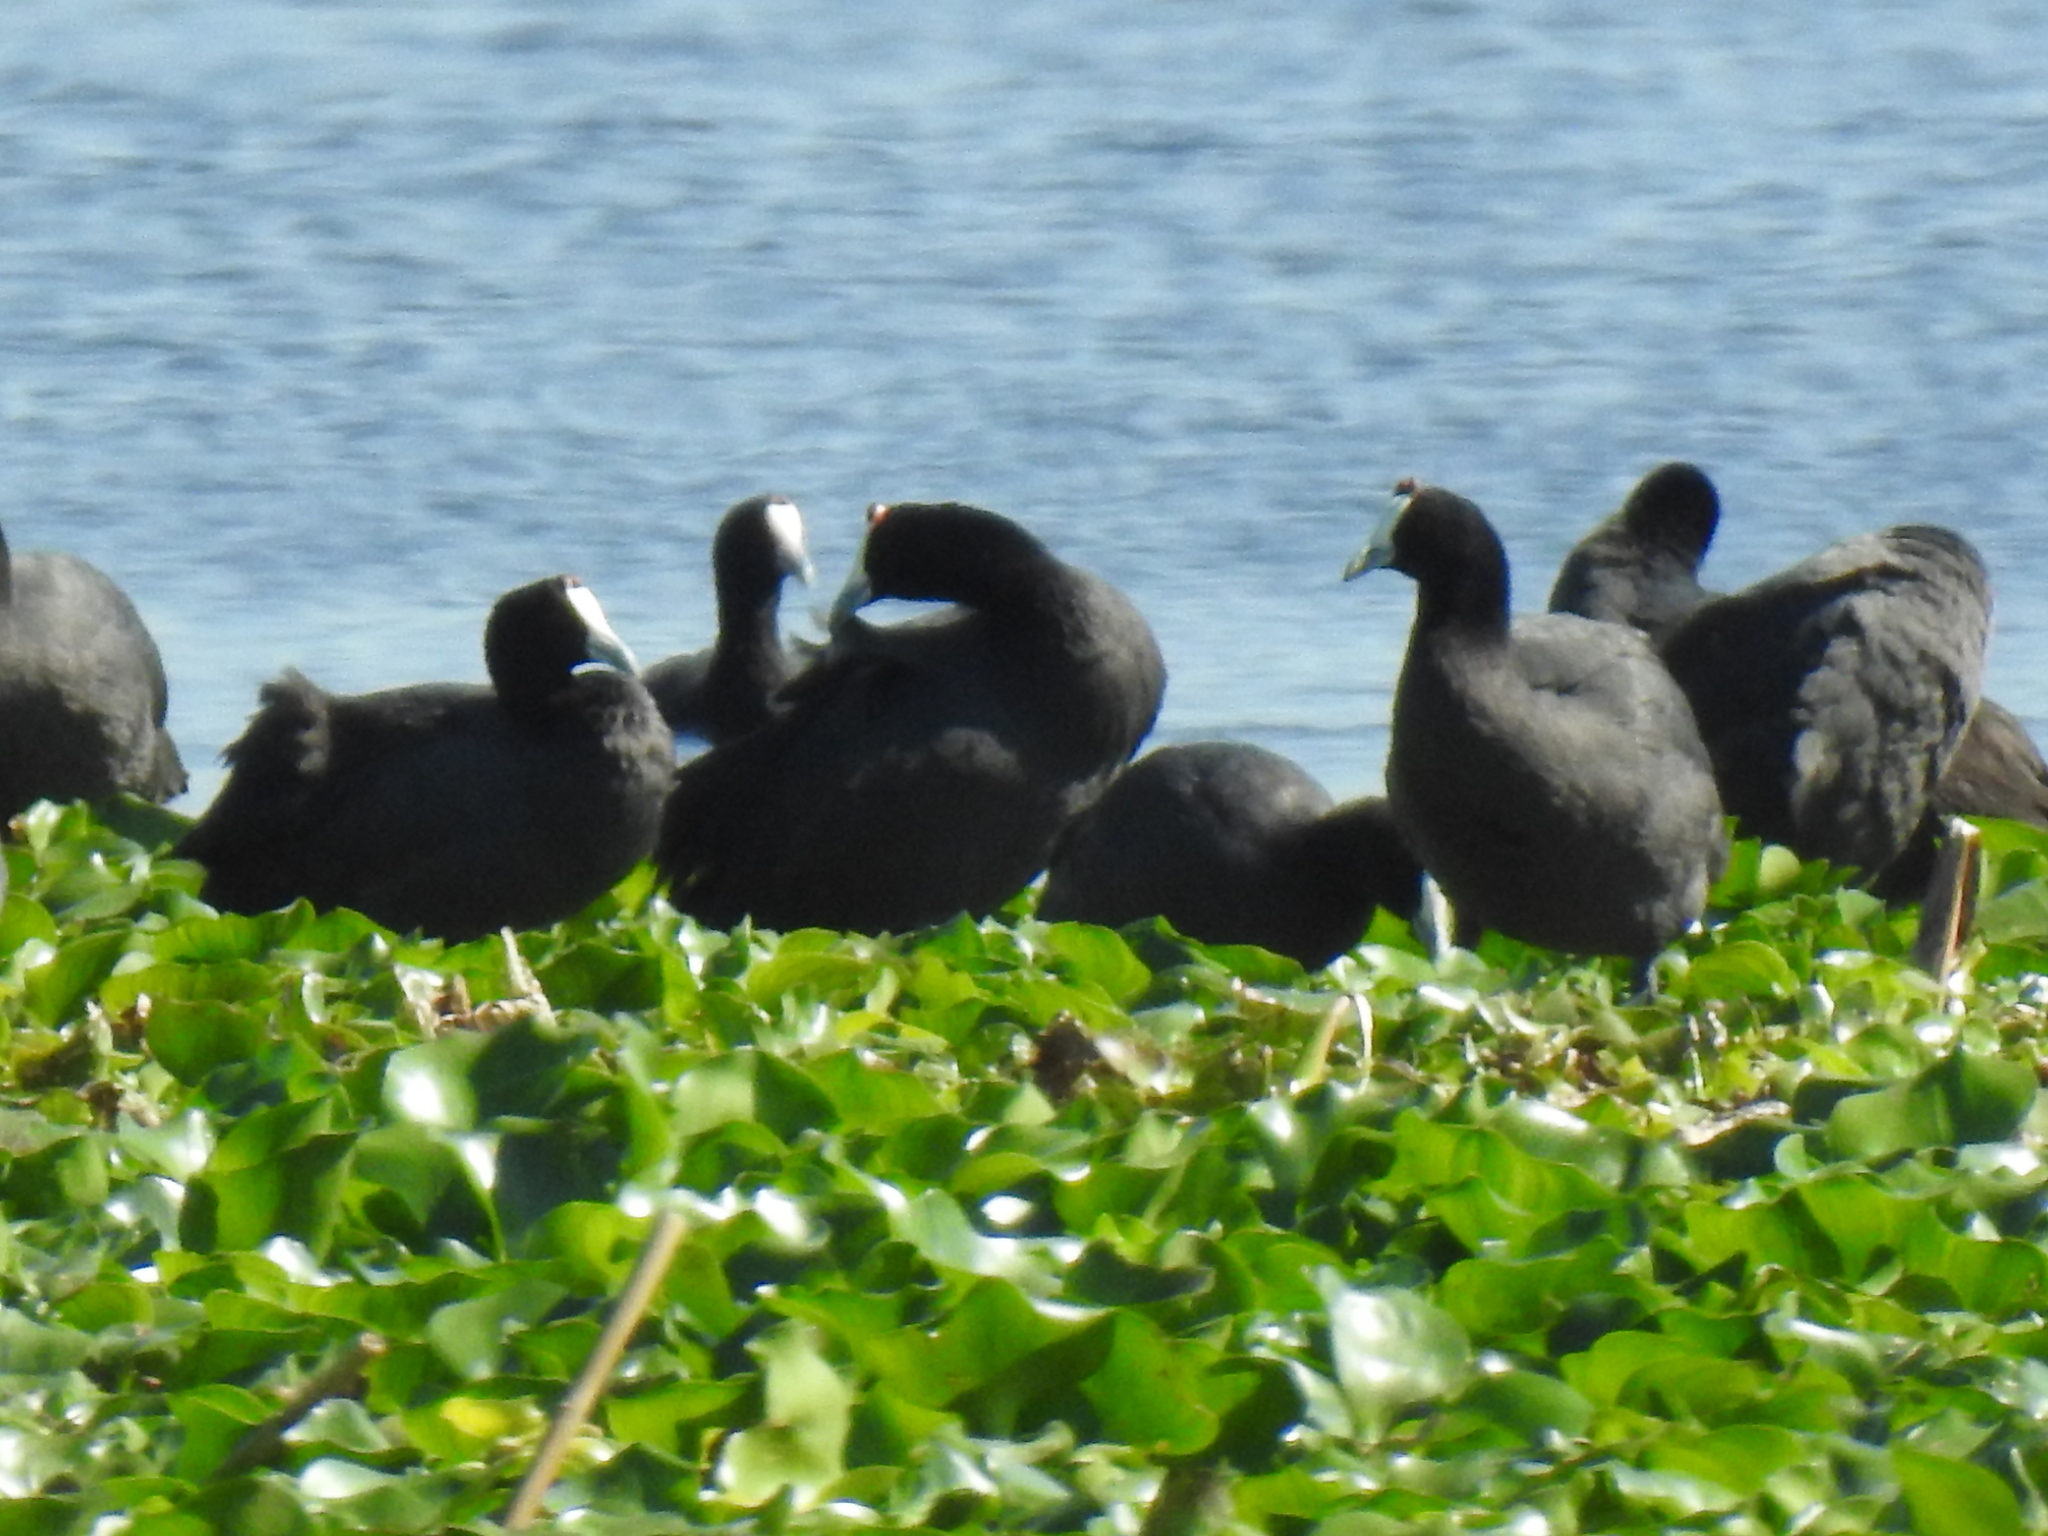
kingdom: Animalia
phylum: Chordata
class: Aves
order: Gruiformes
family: Rallidae
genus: Fulica
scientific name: Fulica cristata
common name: Red-knobbed coot
